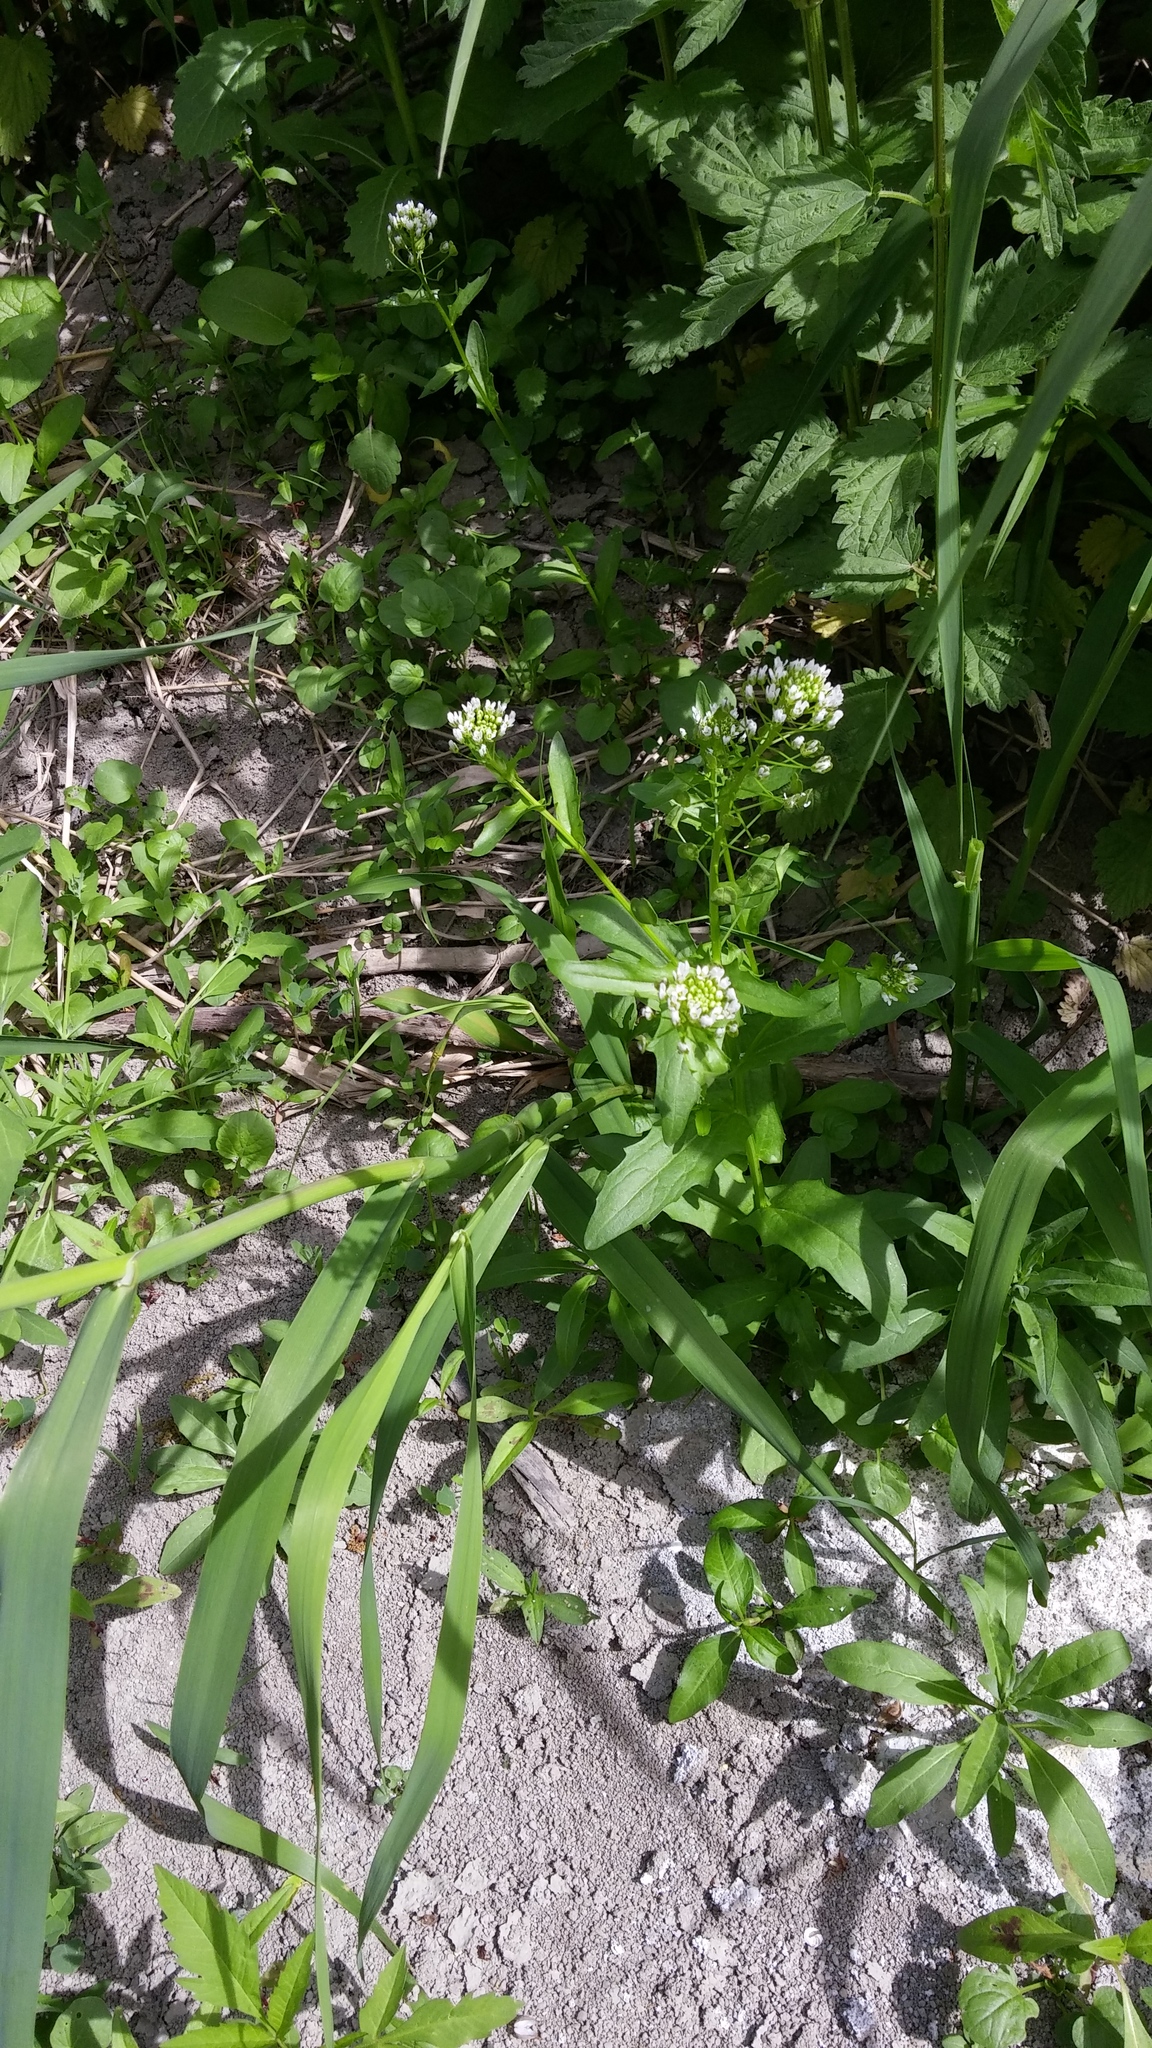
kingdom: Plantae
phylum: Tracheophyta
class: Magnoliopsida
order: Brassicales
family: Brassicaceae
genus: Thlaspi
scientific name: Thlaspi arvense
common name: Field pennycress
